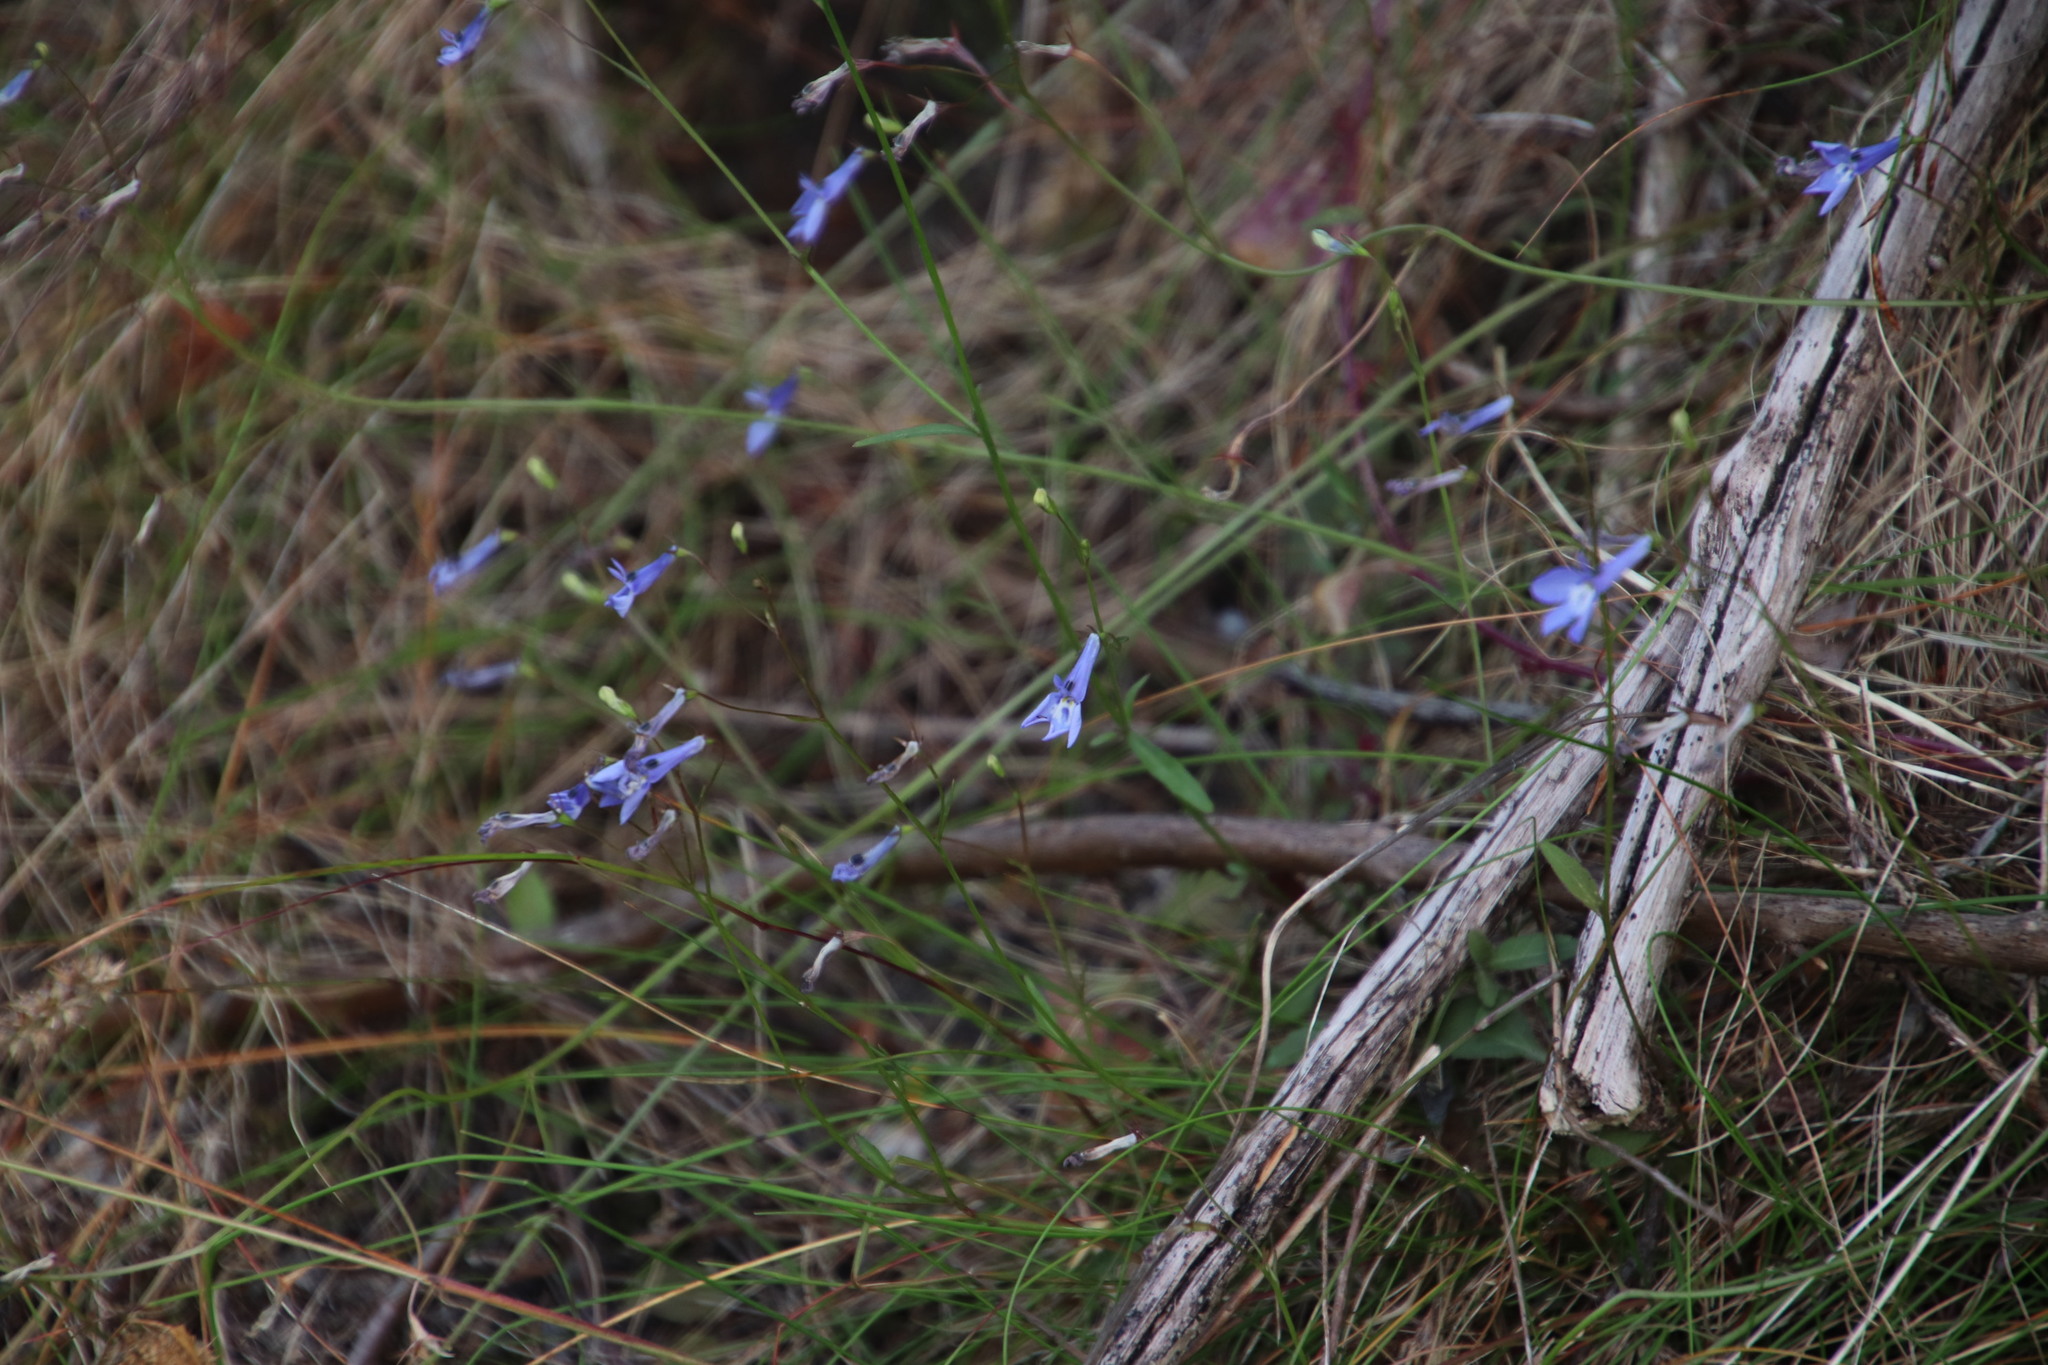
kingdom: Plantae
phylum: Tracheophyta
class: Magnoliopsida
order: Asterales
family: Campanulaceae
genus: Lobelia
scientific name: Lobelia erinus
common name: Edging lobelia
